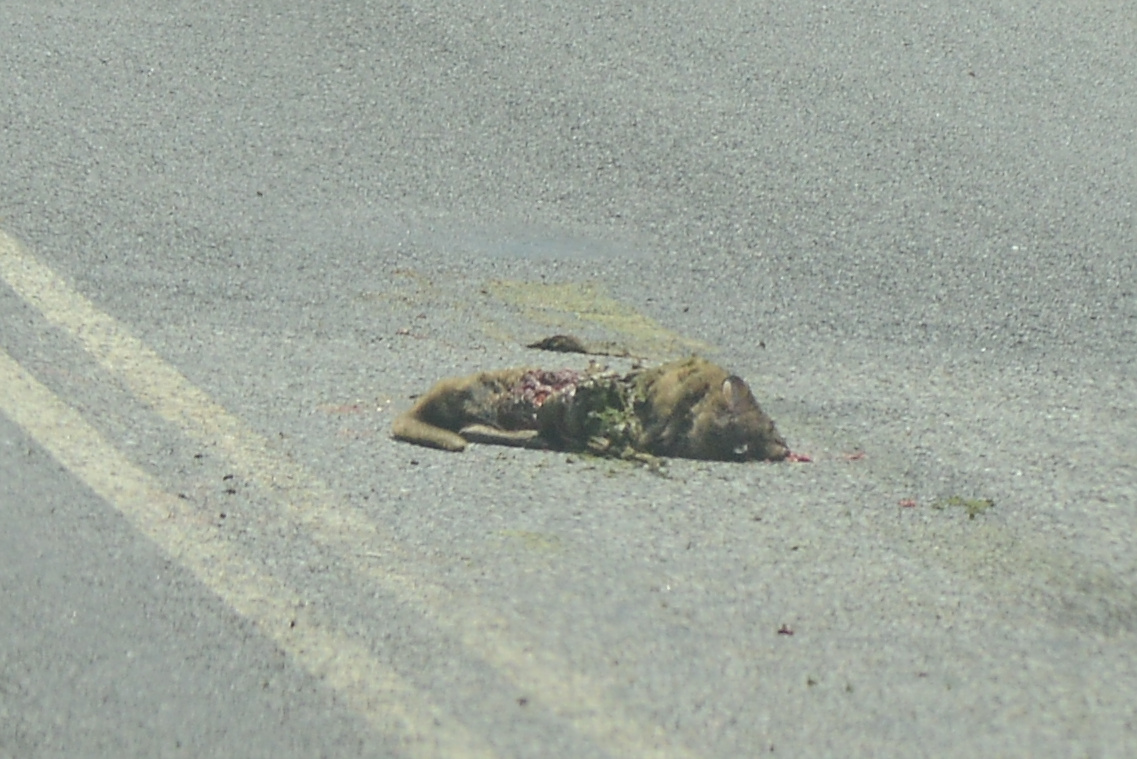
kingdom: Animalia
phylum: Chordata
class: Mammalia
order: Diprotodontia
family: Macropodidae
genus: Thylogale
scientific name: Thylogale billardierii
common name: Tasmanian pademelon
